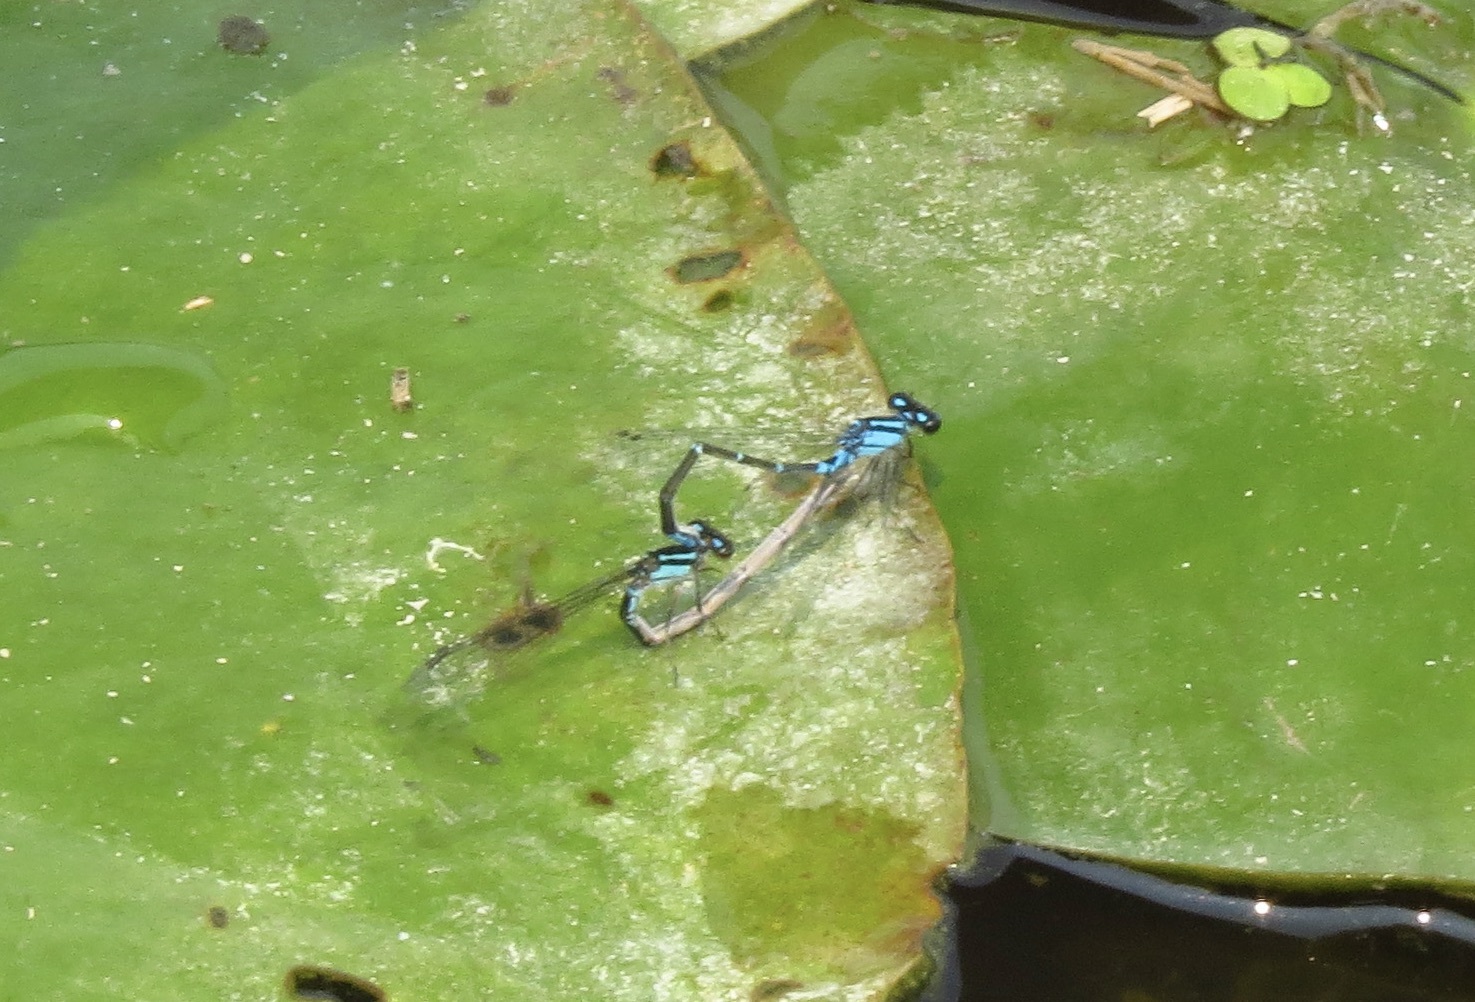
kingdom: Animalia
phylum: Arthropoda
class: Insecta
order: Odonata
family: Coenagrionidae
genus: Enallagma
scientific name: Enallagma geminatum
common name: Skimming bluet
